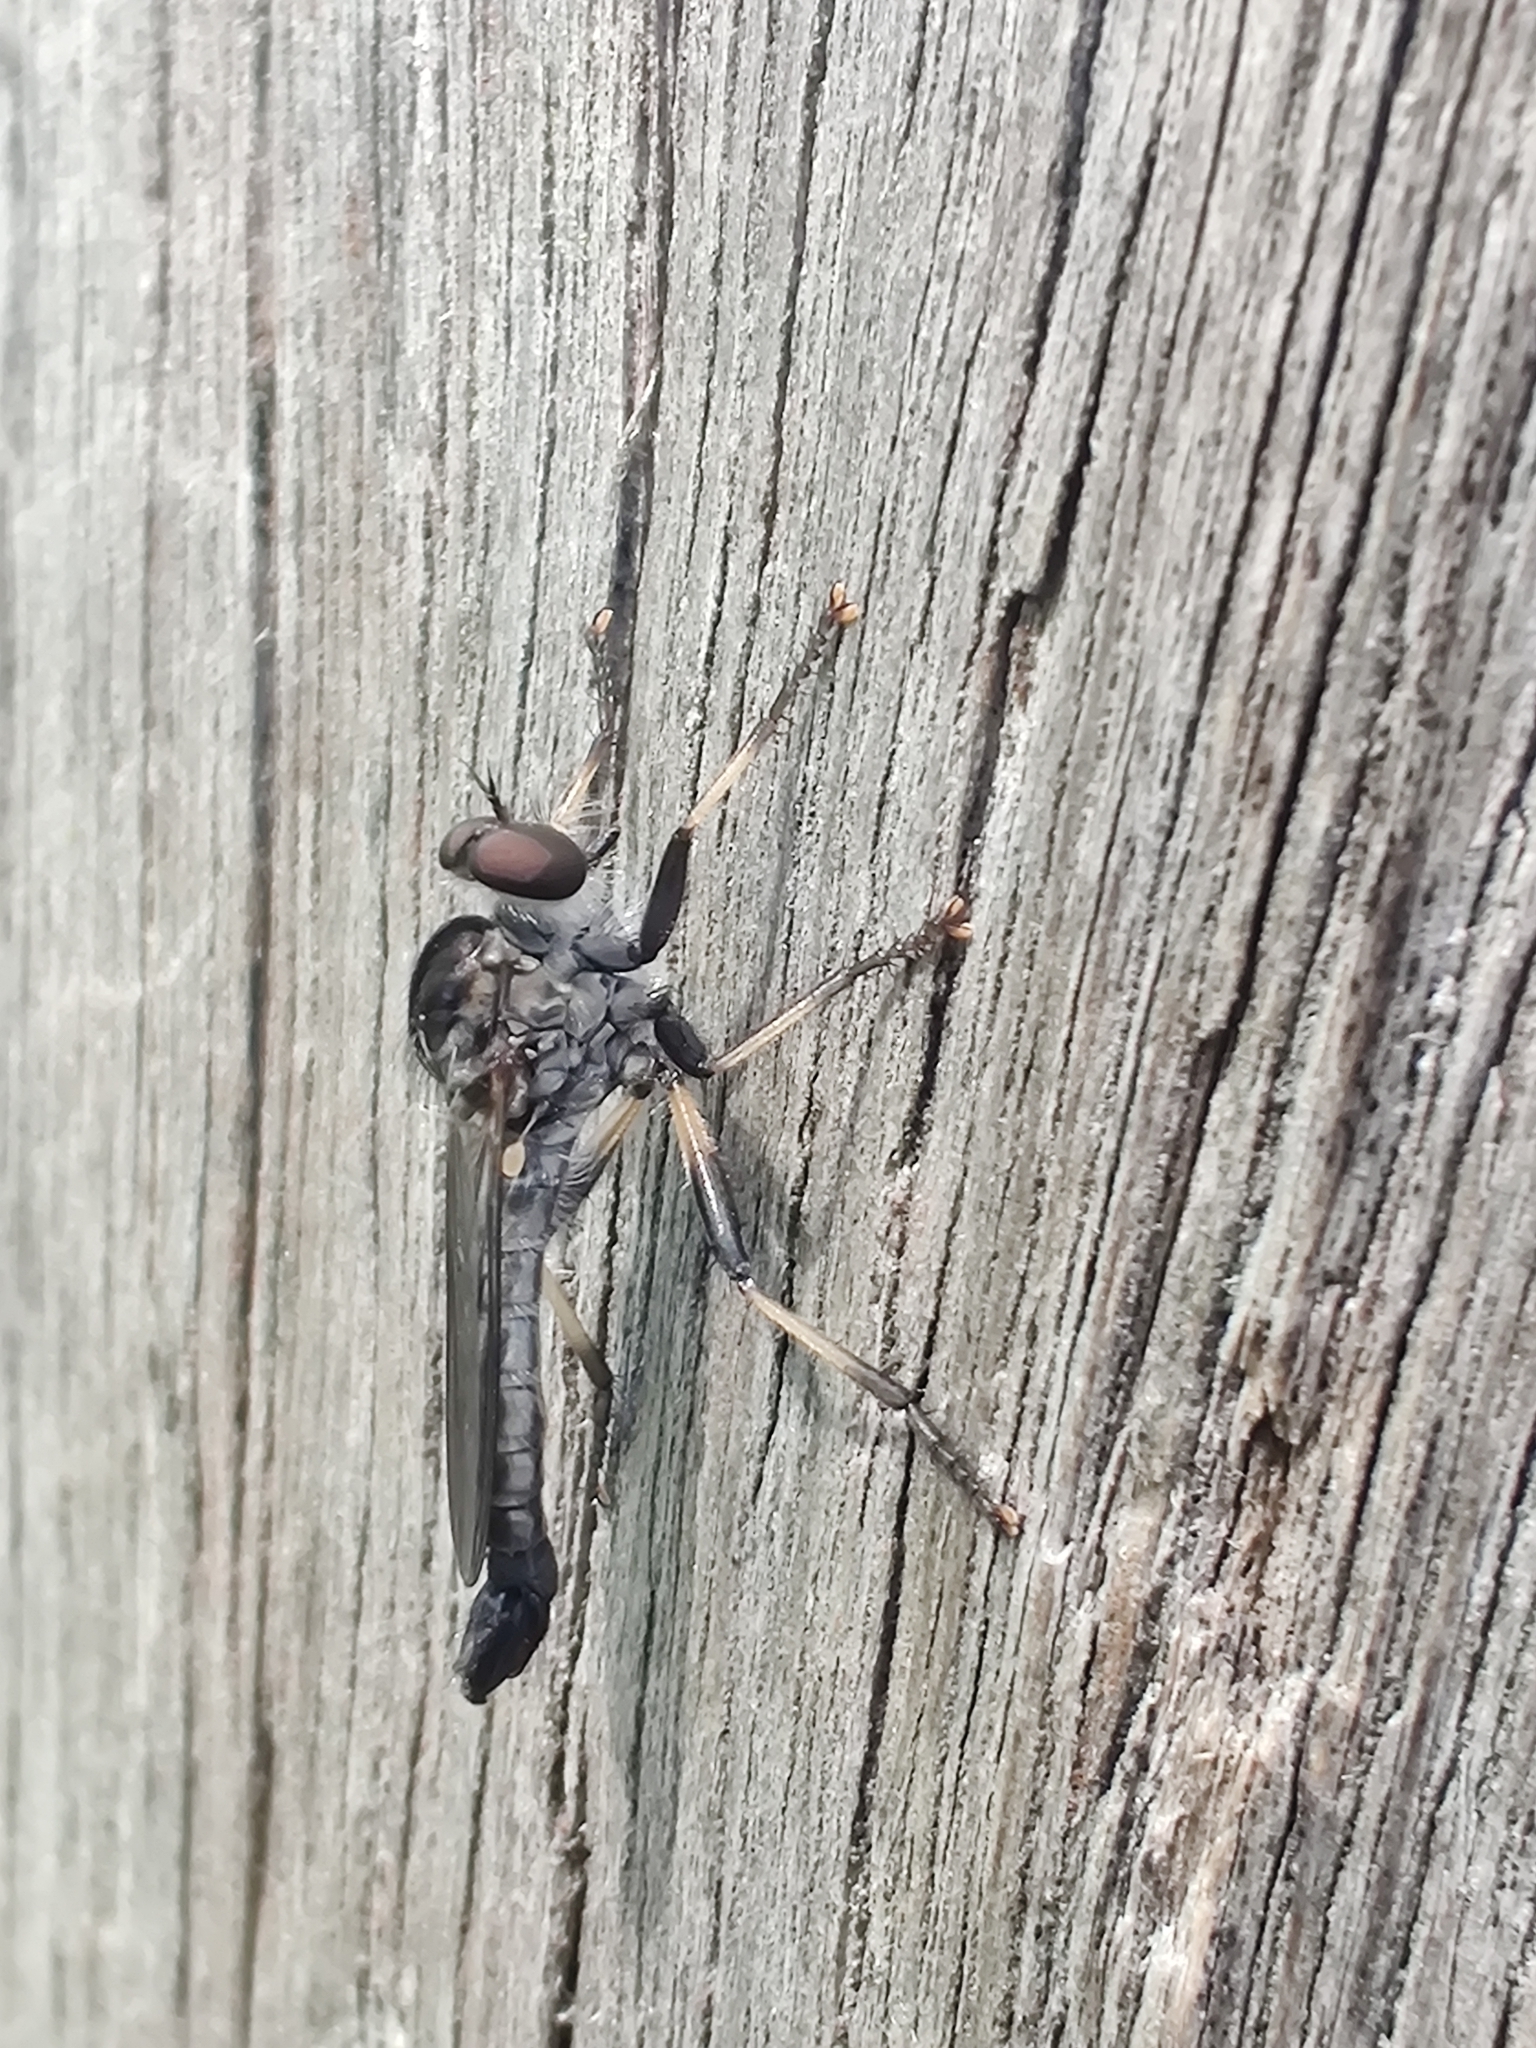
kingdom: Animalia
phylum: Arthropoda
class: Insecta
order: Diptera
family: Asilidae
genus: Cerdistus
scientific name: Cerdistus fuscipennis
